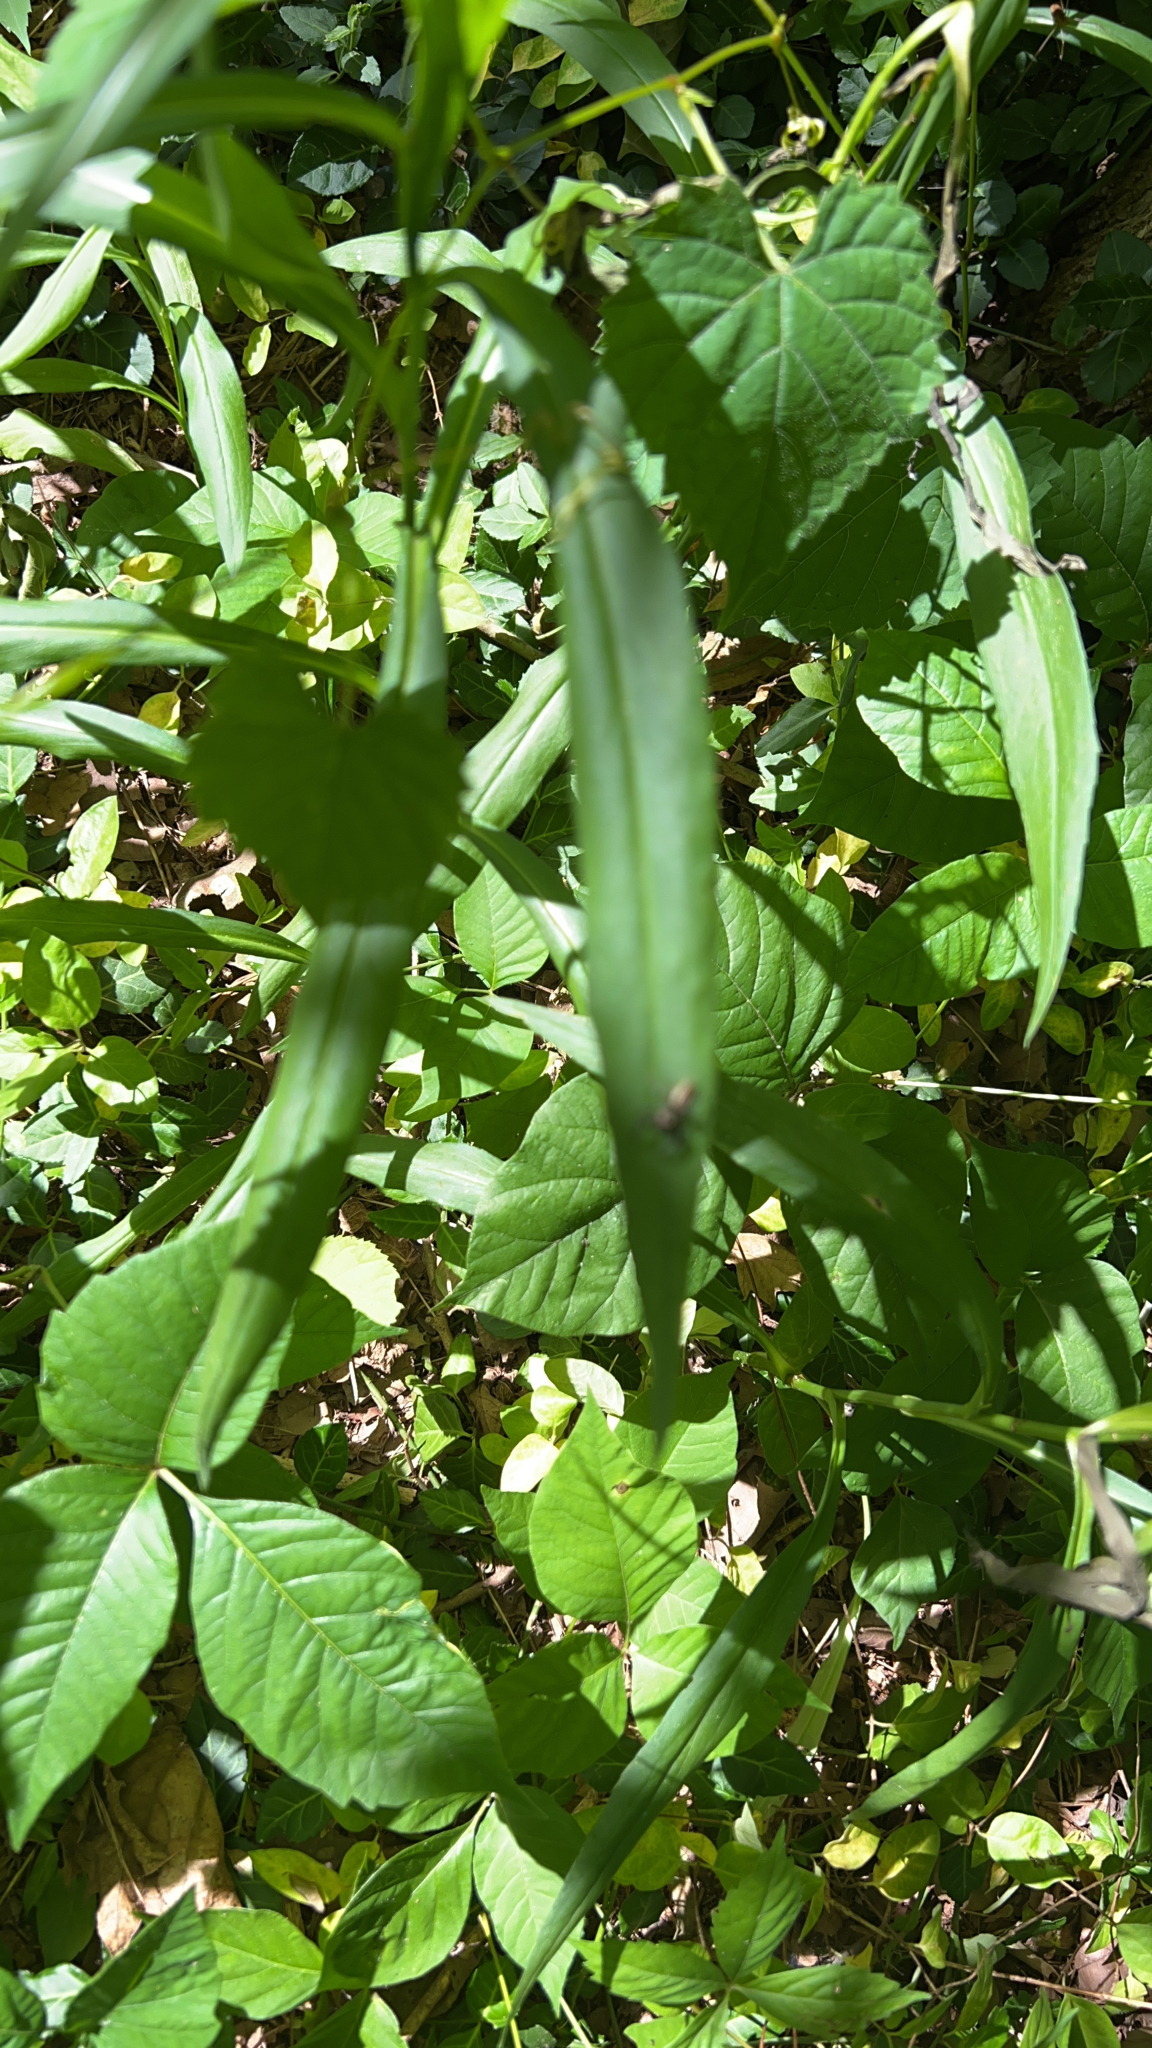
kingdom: Plantae
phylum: Tracheophyta
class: Magnoliopsida
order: Sapindales
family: Anacardiaceae
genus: Toxicodendron
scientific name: Toxicodendron radicans
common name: Poison ivy
